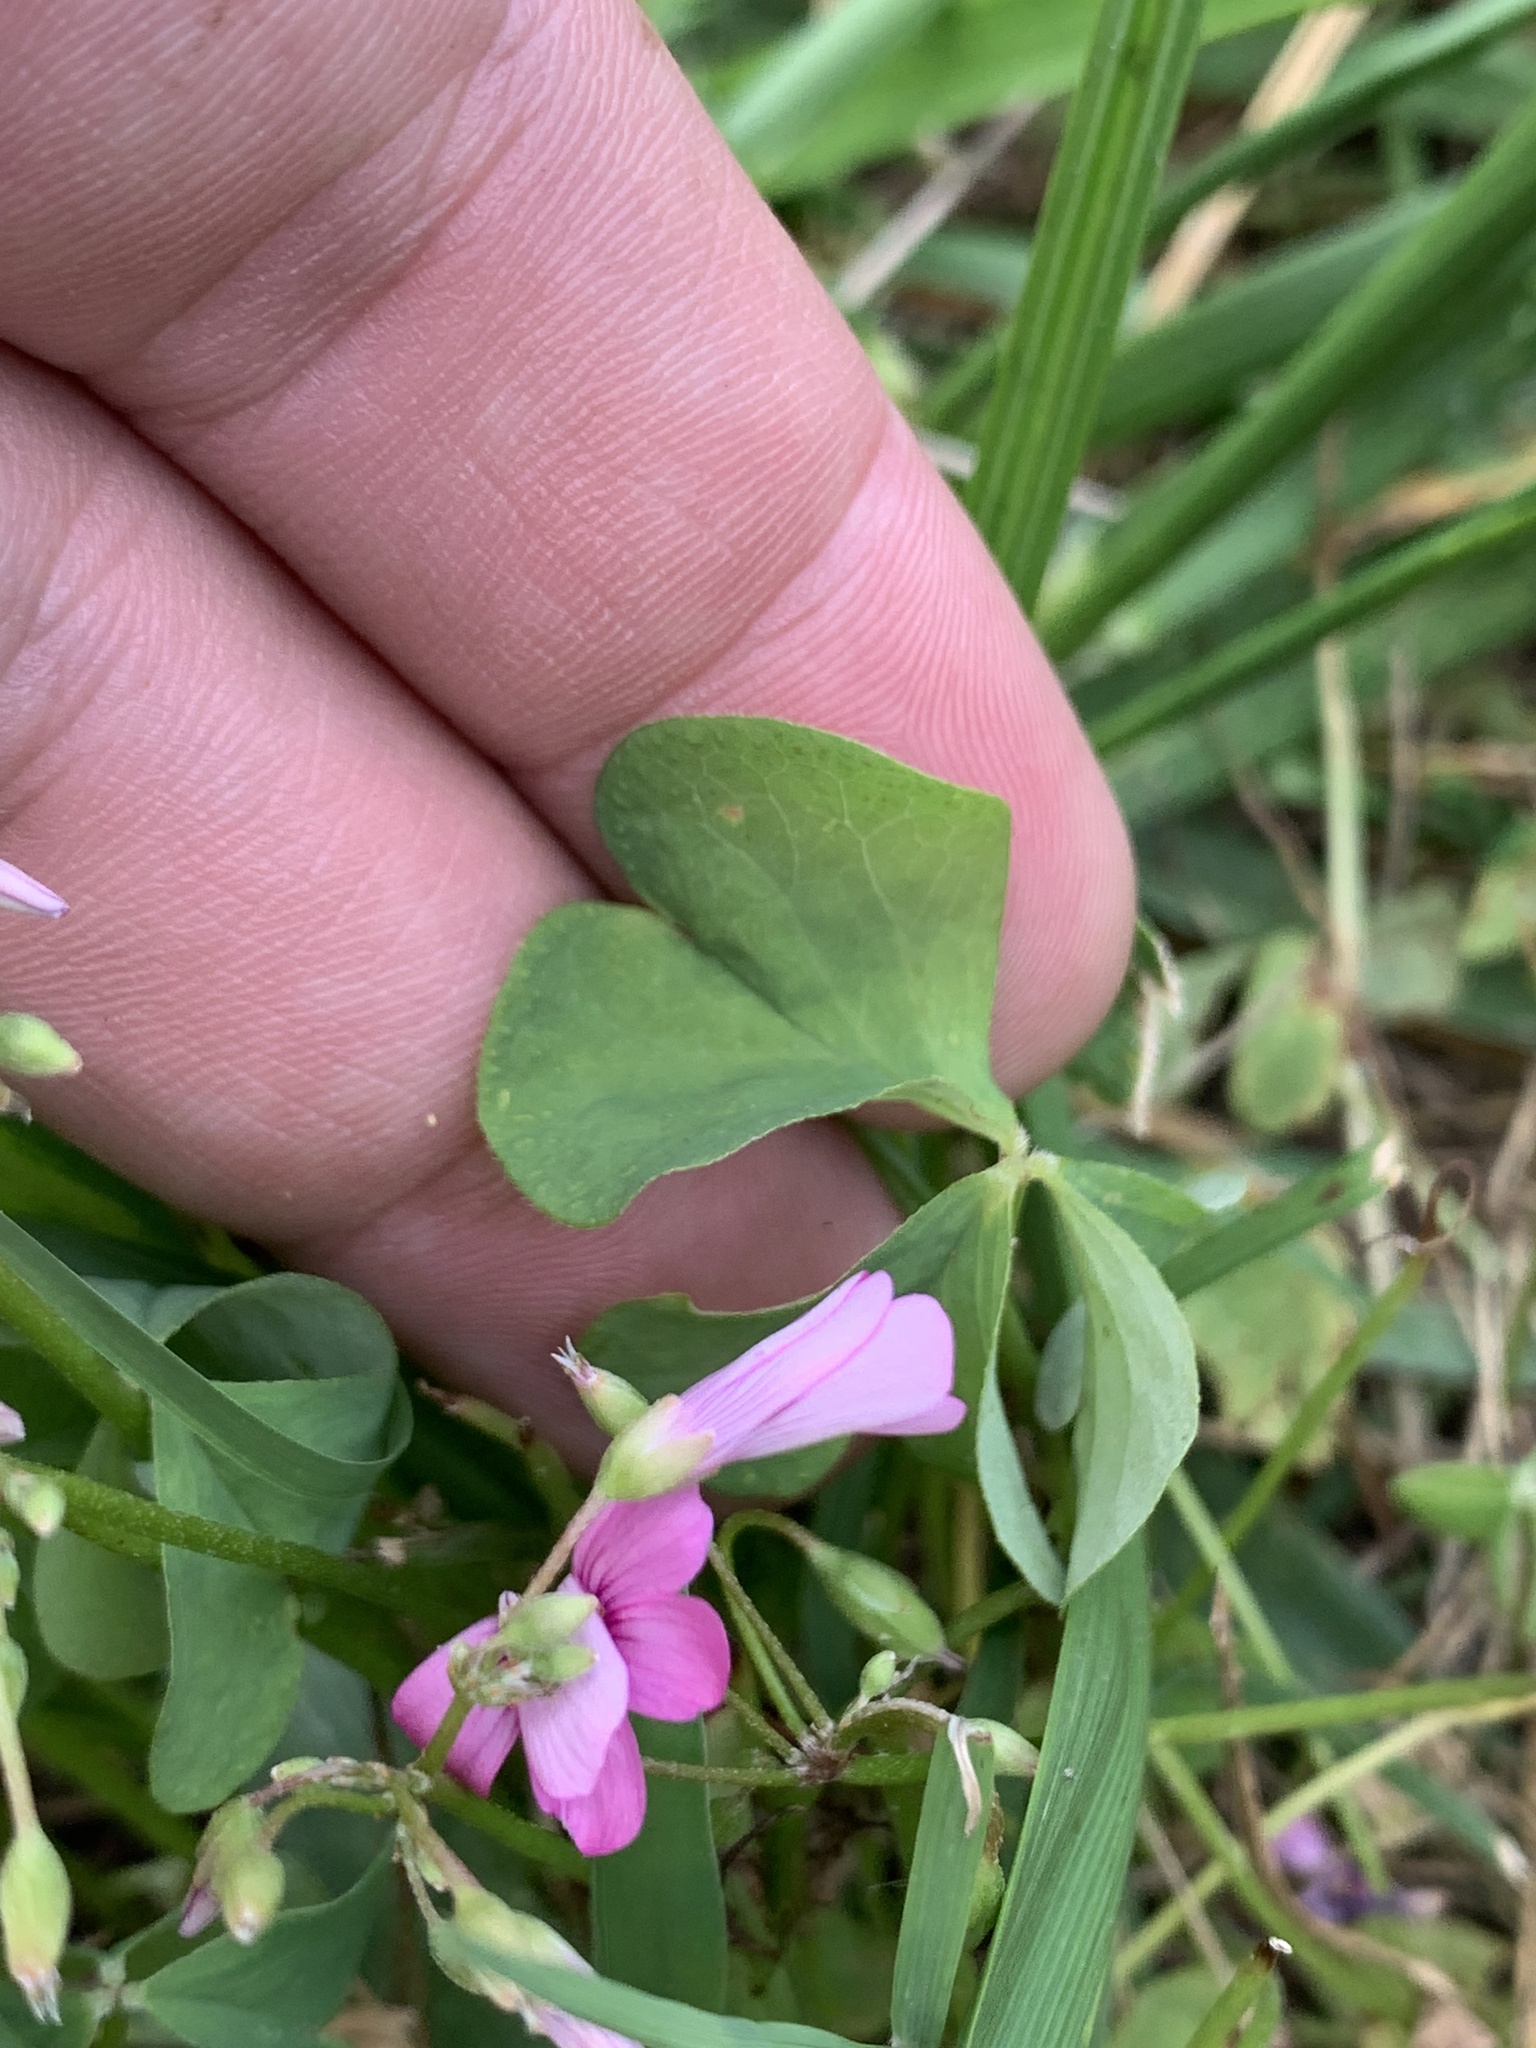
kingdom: Plantae
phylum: Tracheophyta
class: Magnoliopsida
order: Oxalidales
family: Oxalidaceae
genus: Oxalis
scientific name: Oxalis articulata
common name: Pink-sorrel
